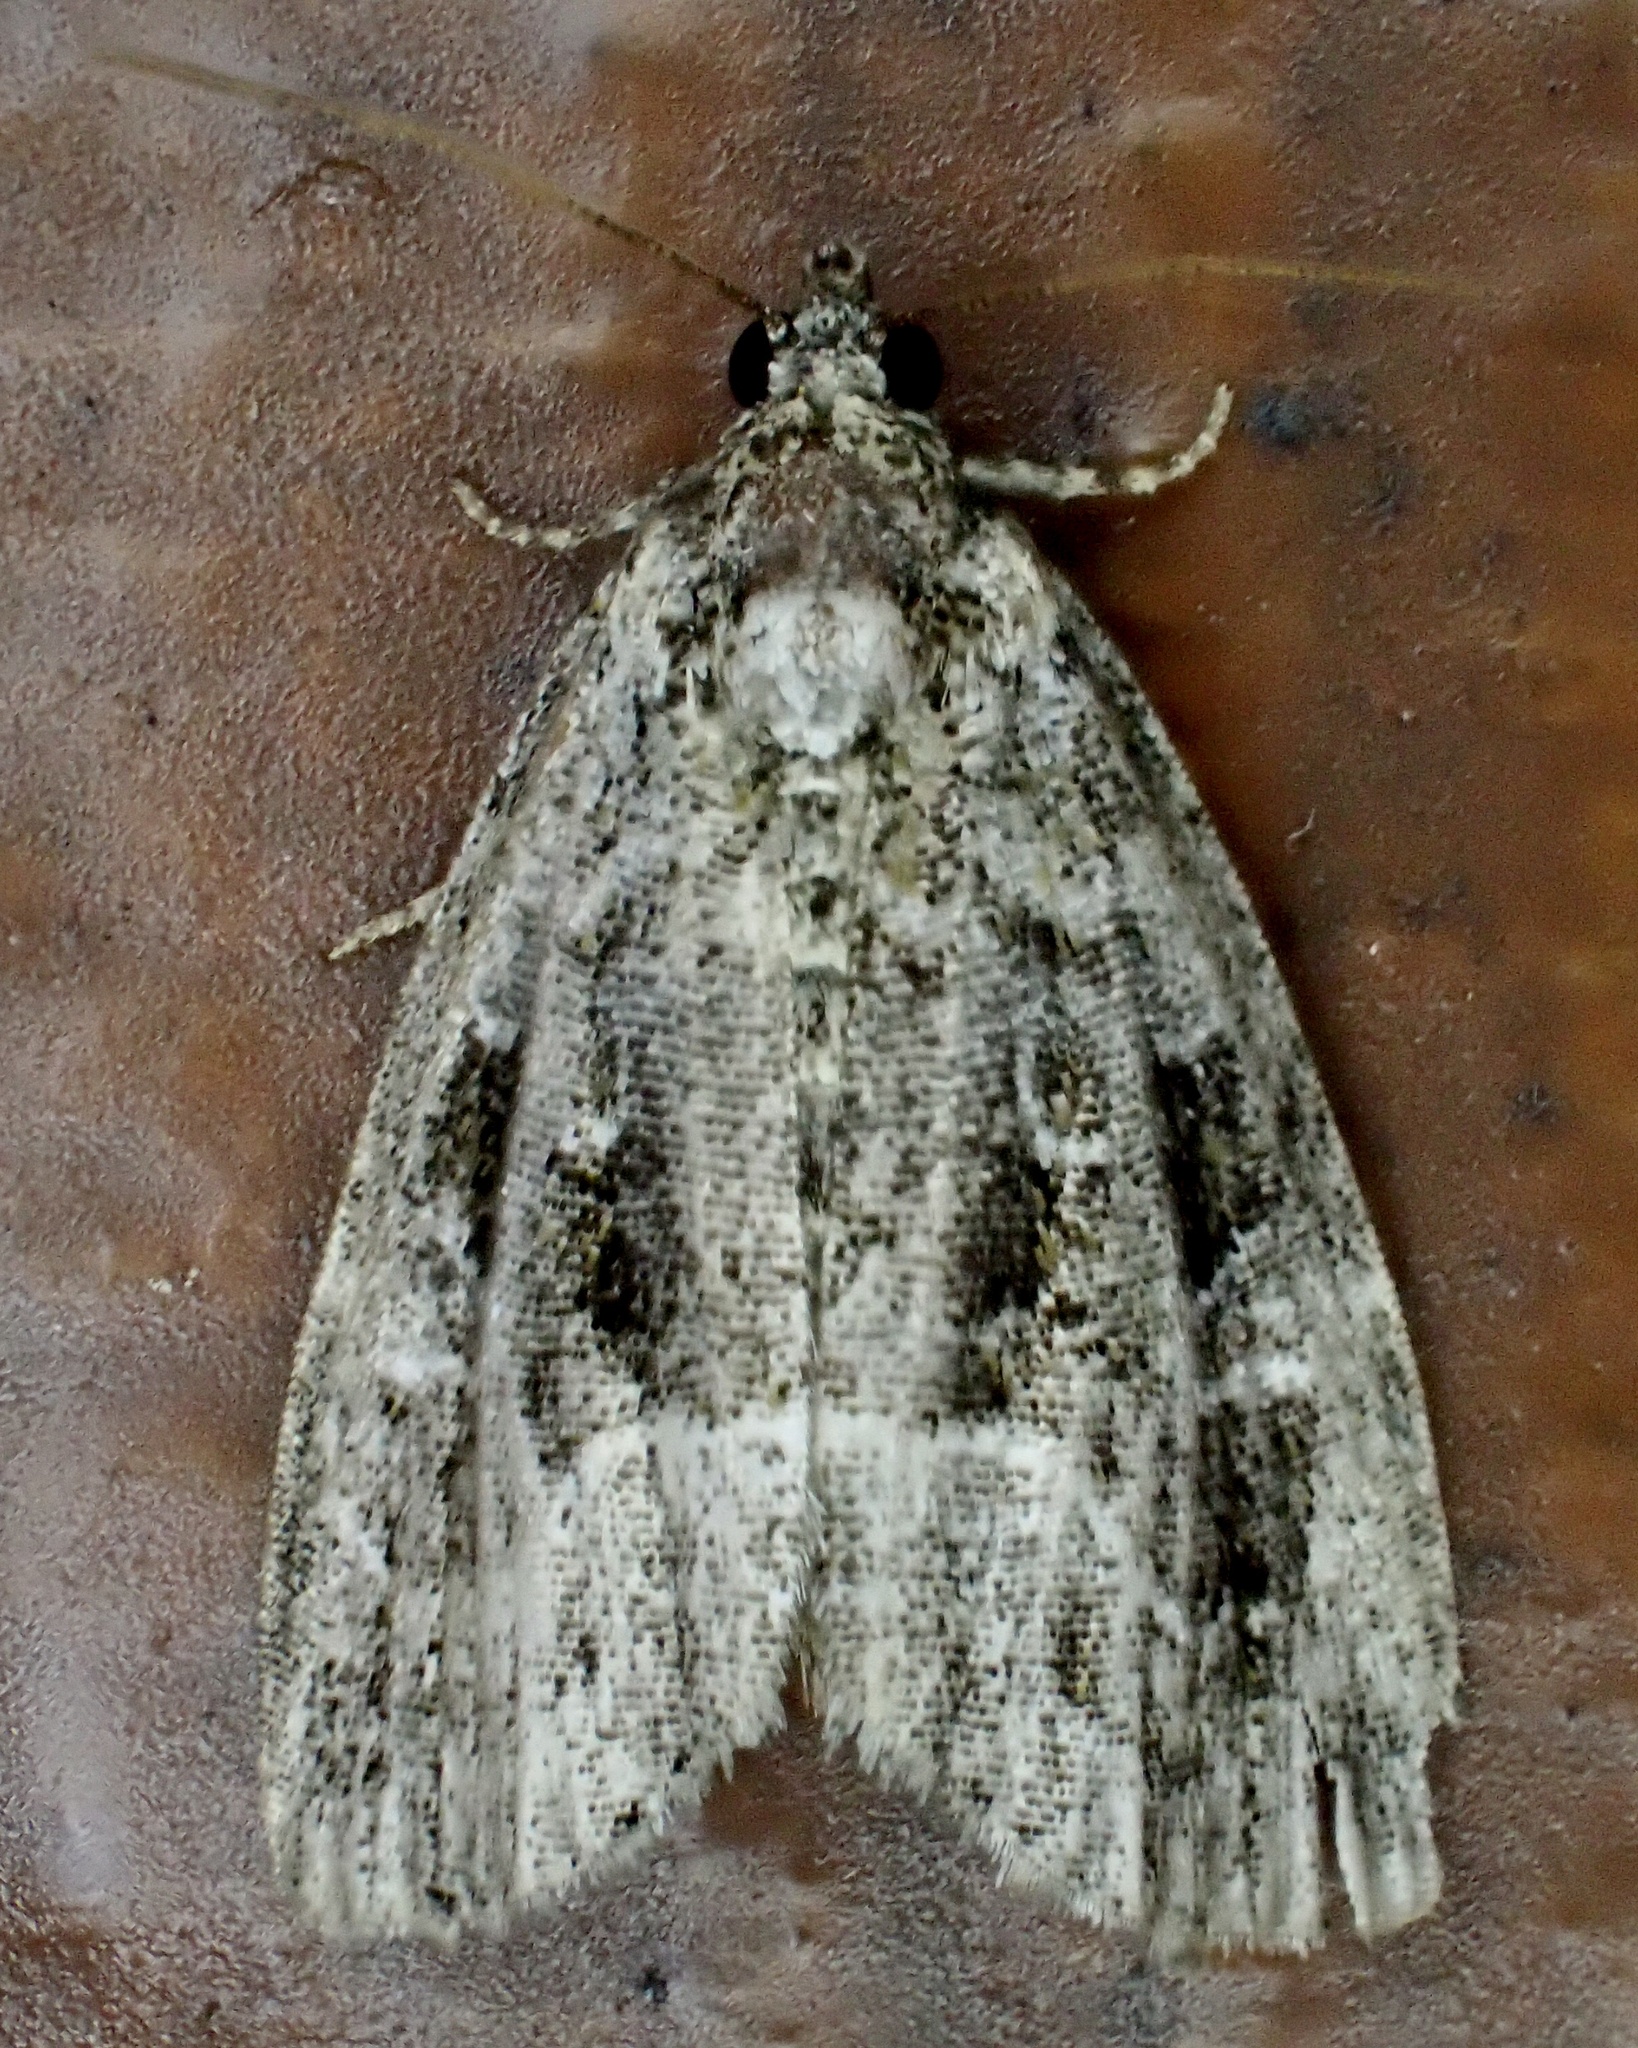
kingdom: Animalia
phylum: Arthropoda
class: Insecta
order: Lepidoptera
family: Noctuidae
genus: Protodeltote
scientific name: Protodeltote muscosula
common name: Large mossy glyph
